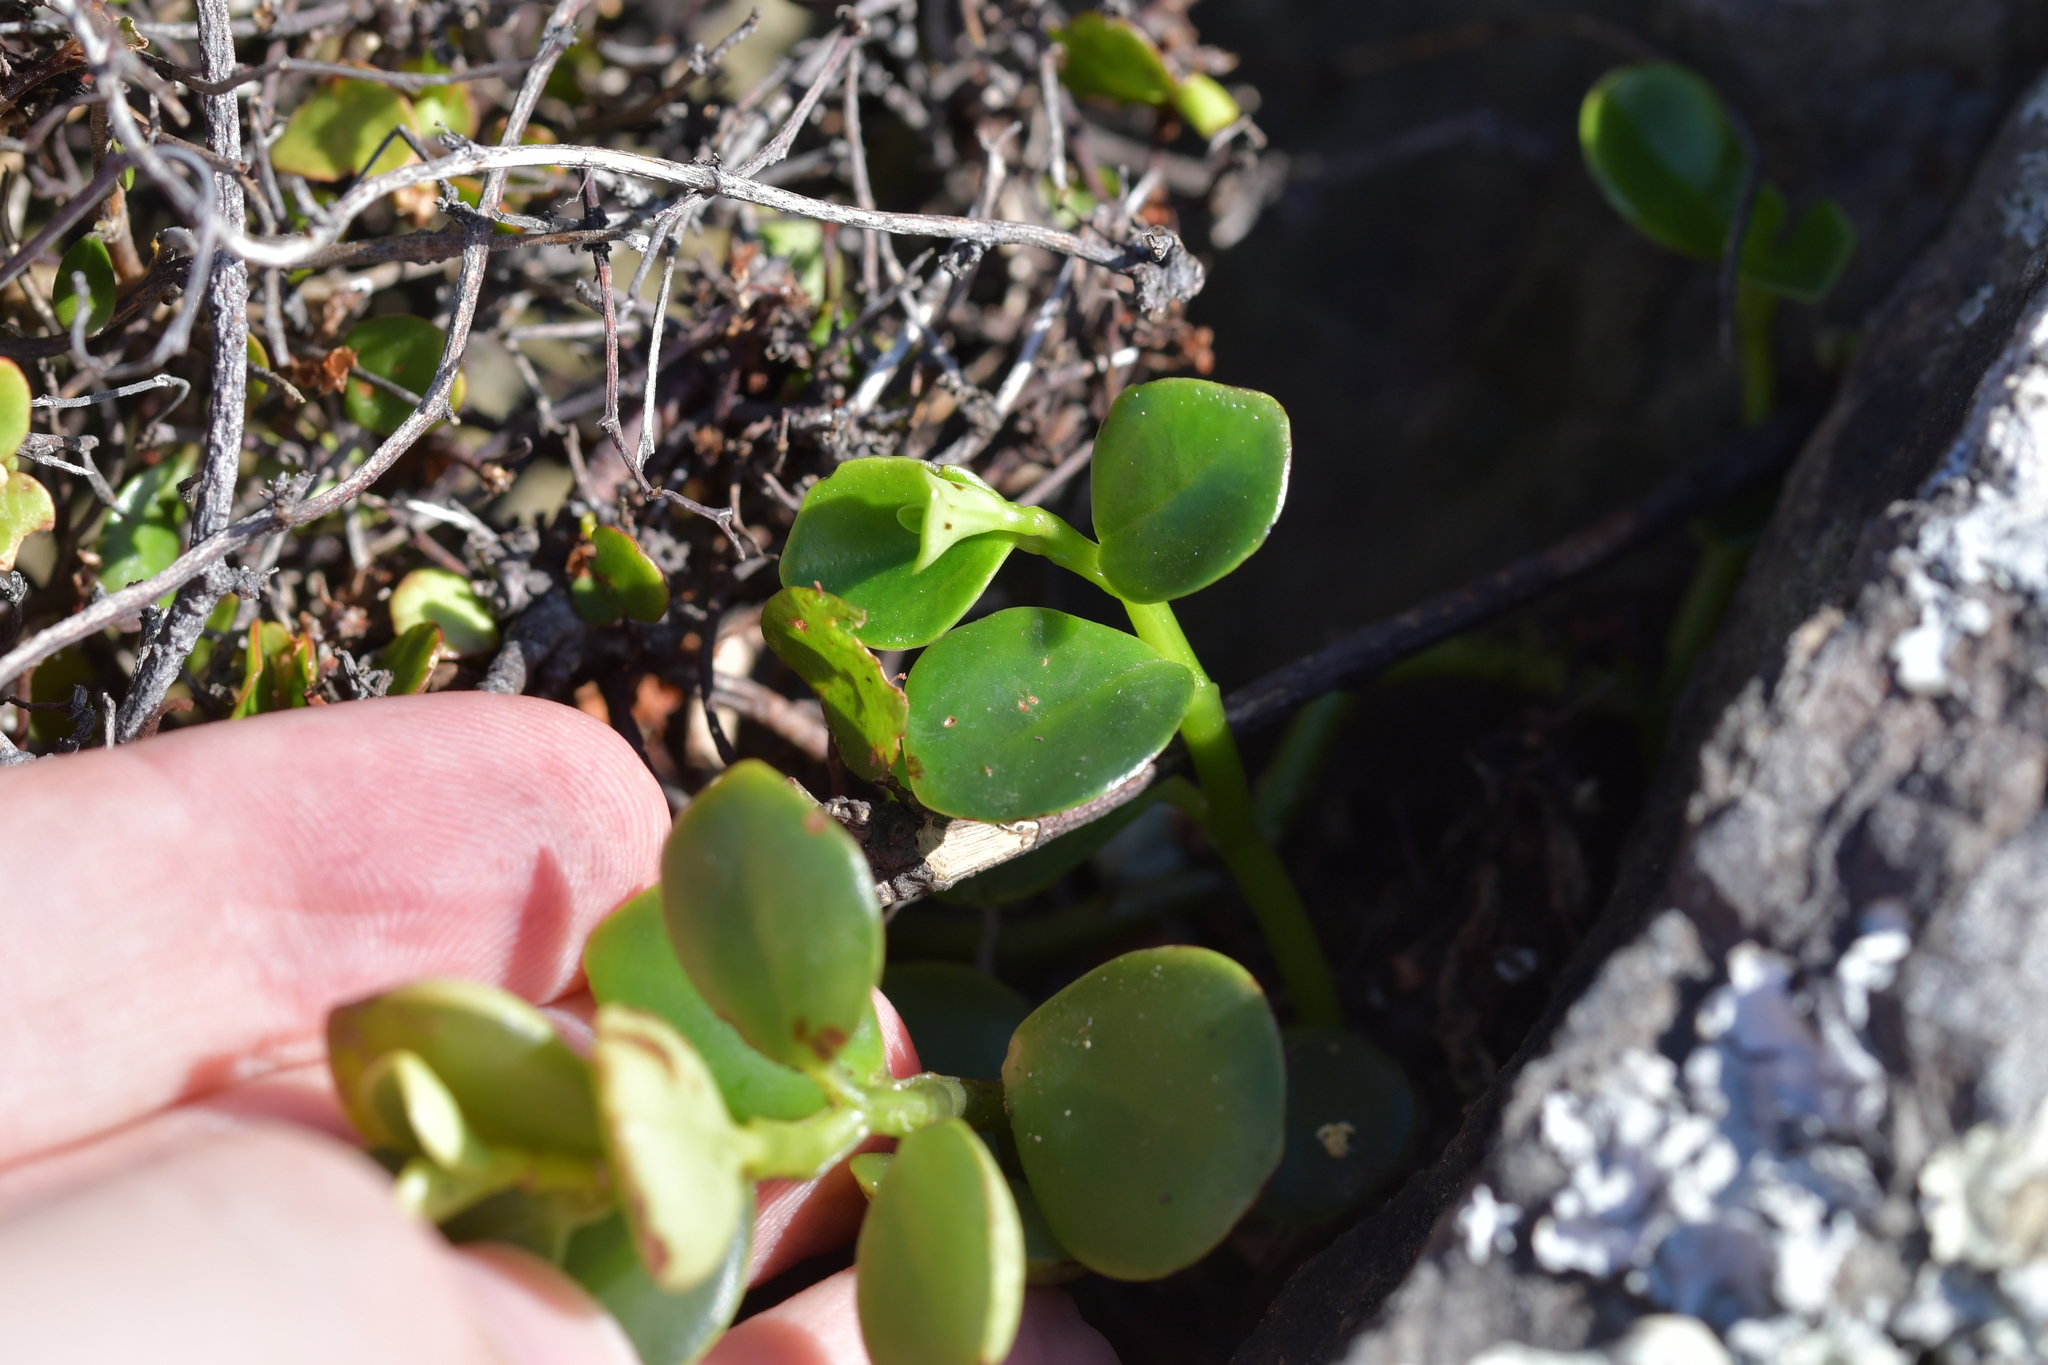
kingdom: Plantae
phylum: Tracheophyta
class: Magnoliopsida
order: Piperales
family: Piperaceae
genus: Peperomia
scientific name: Peperomia urvilleana
